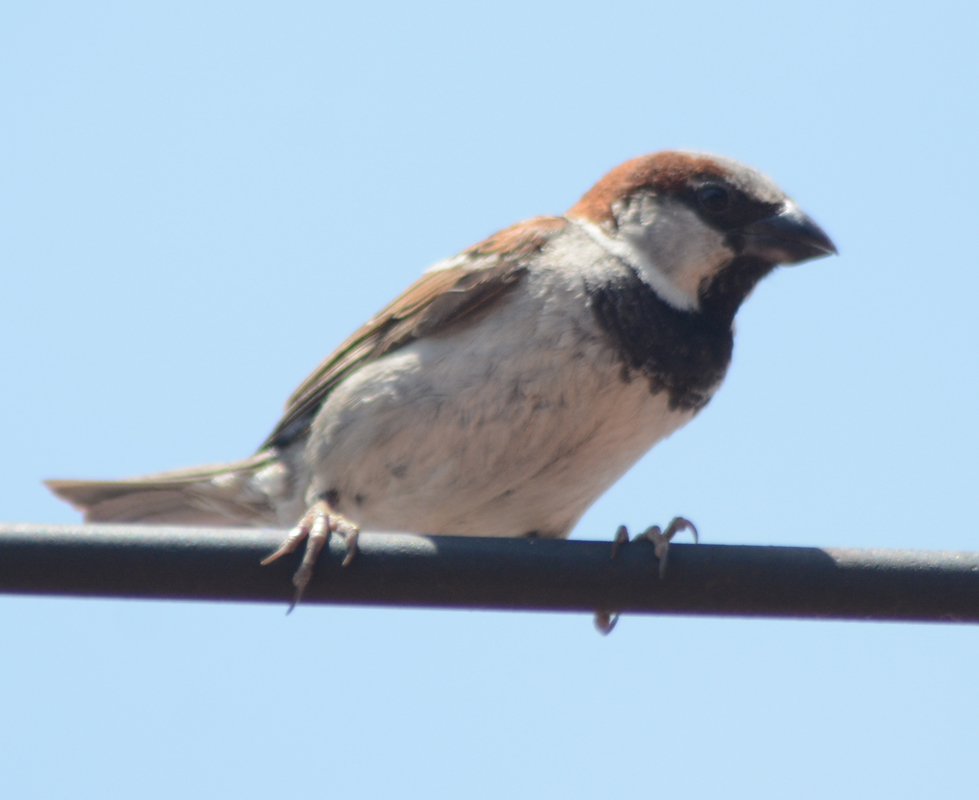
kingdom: Animalia
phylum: Chordata
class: Aves
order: Passeriformes
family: Passeridae
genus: Passer
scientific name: Passer domesticus
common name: House sparrow
